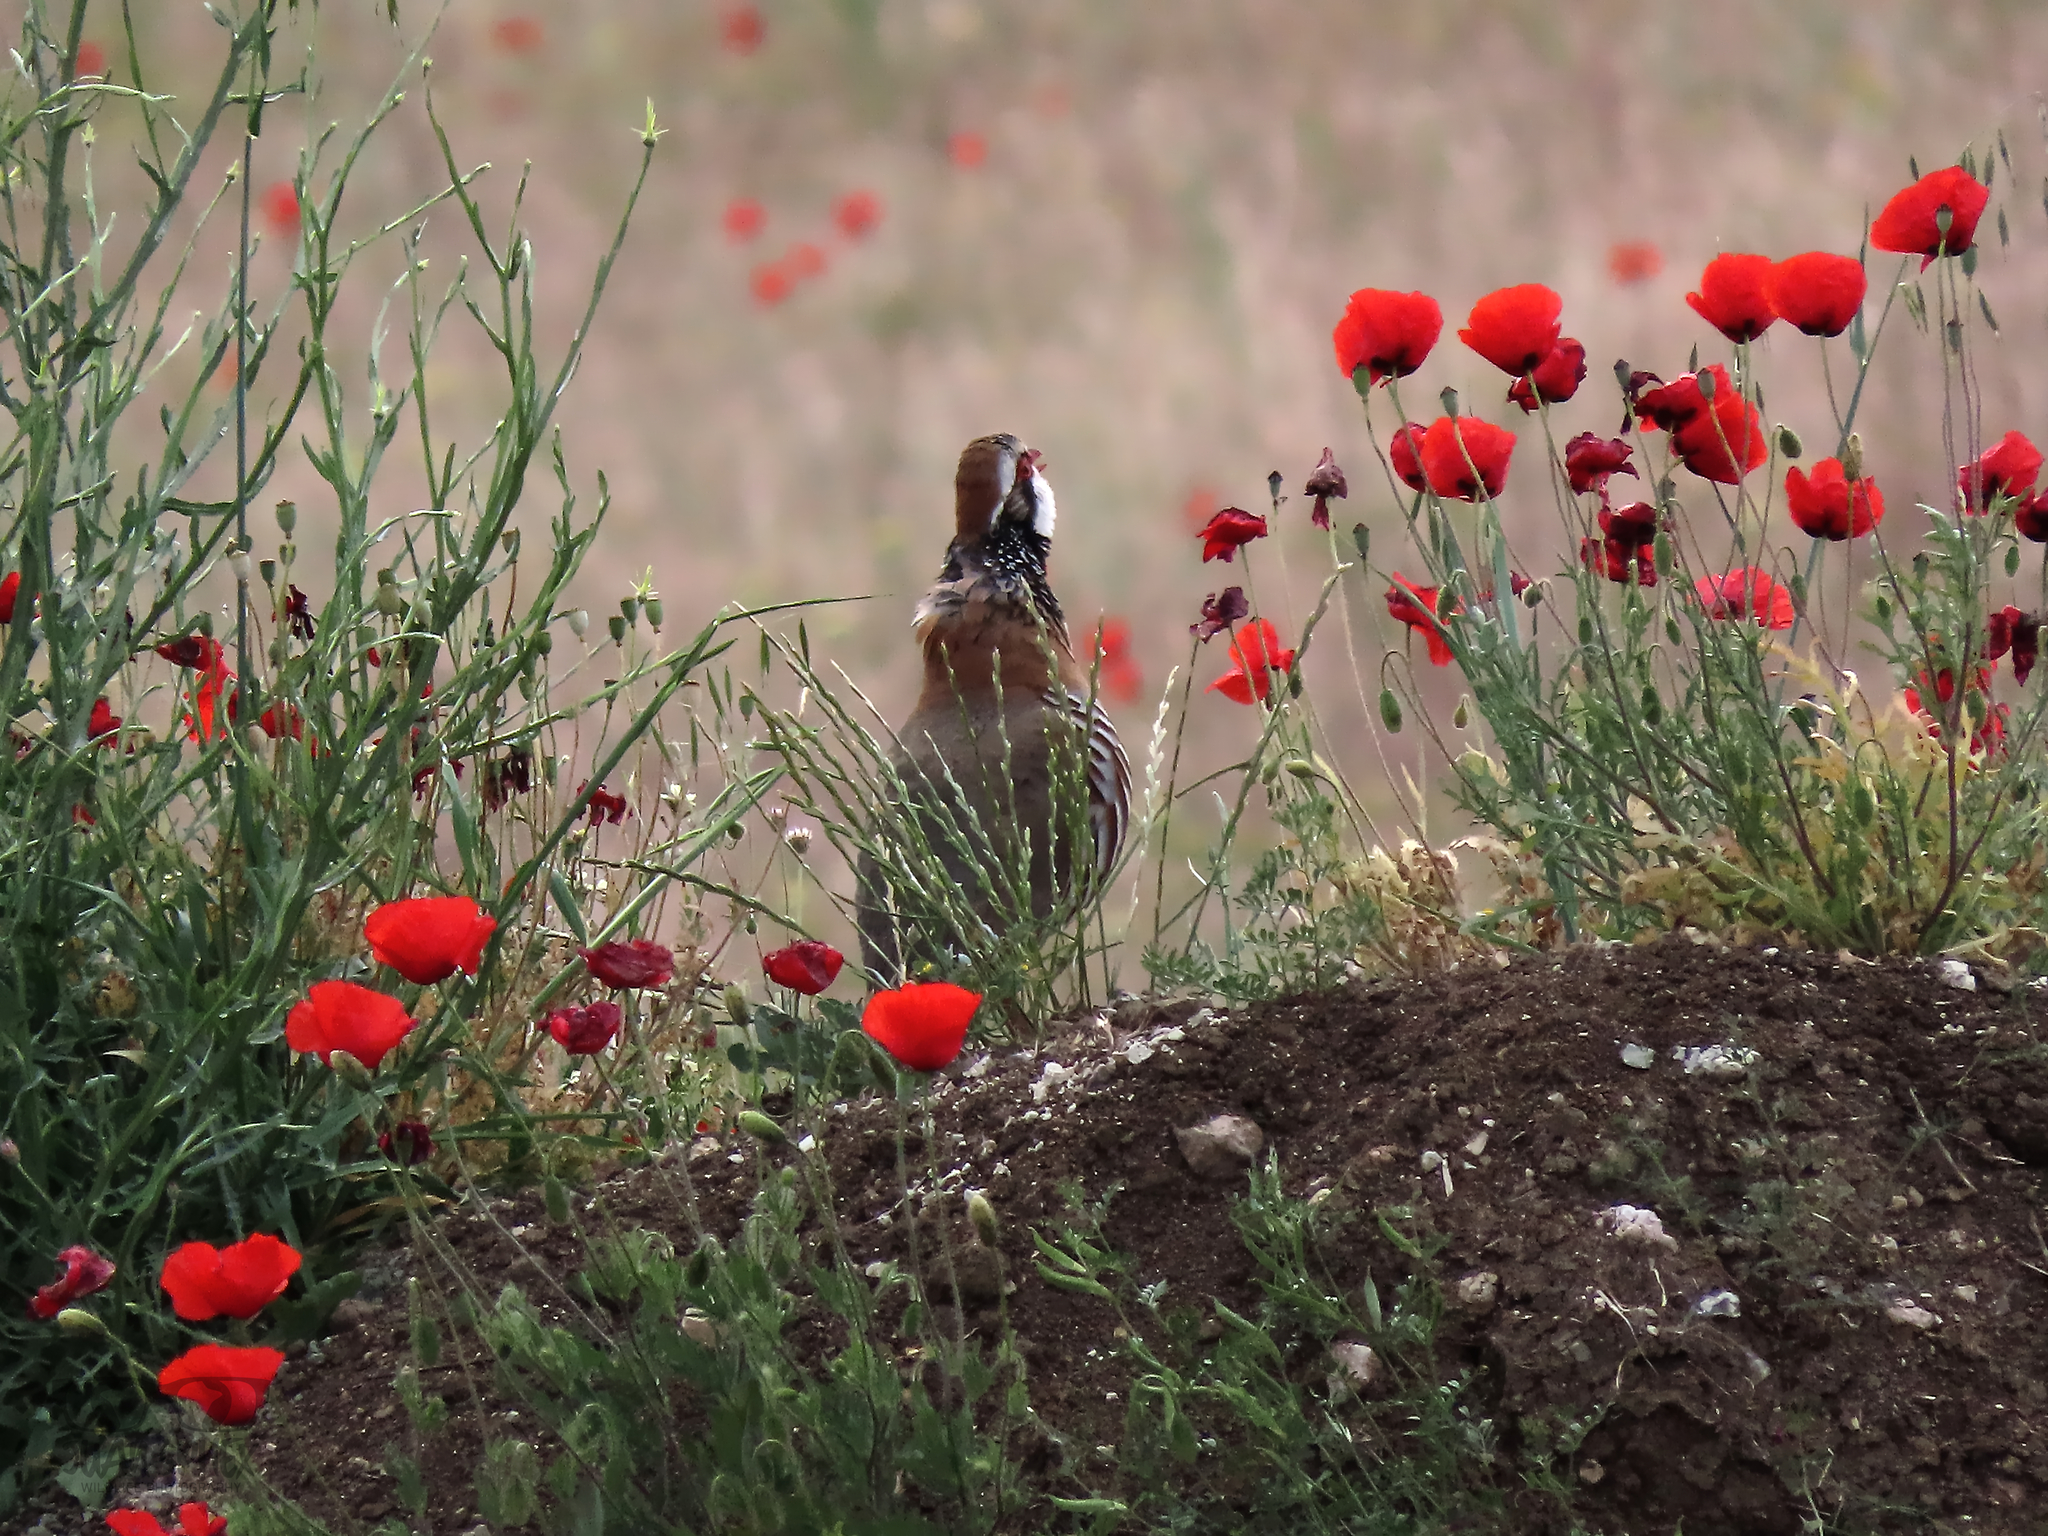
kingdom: Animalia
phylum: Chordata
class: Aves
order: Galliformes
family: Phasianidae
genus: Alectoris
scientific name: Alectoris rufa
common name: Red-legged partridge
